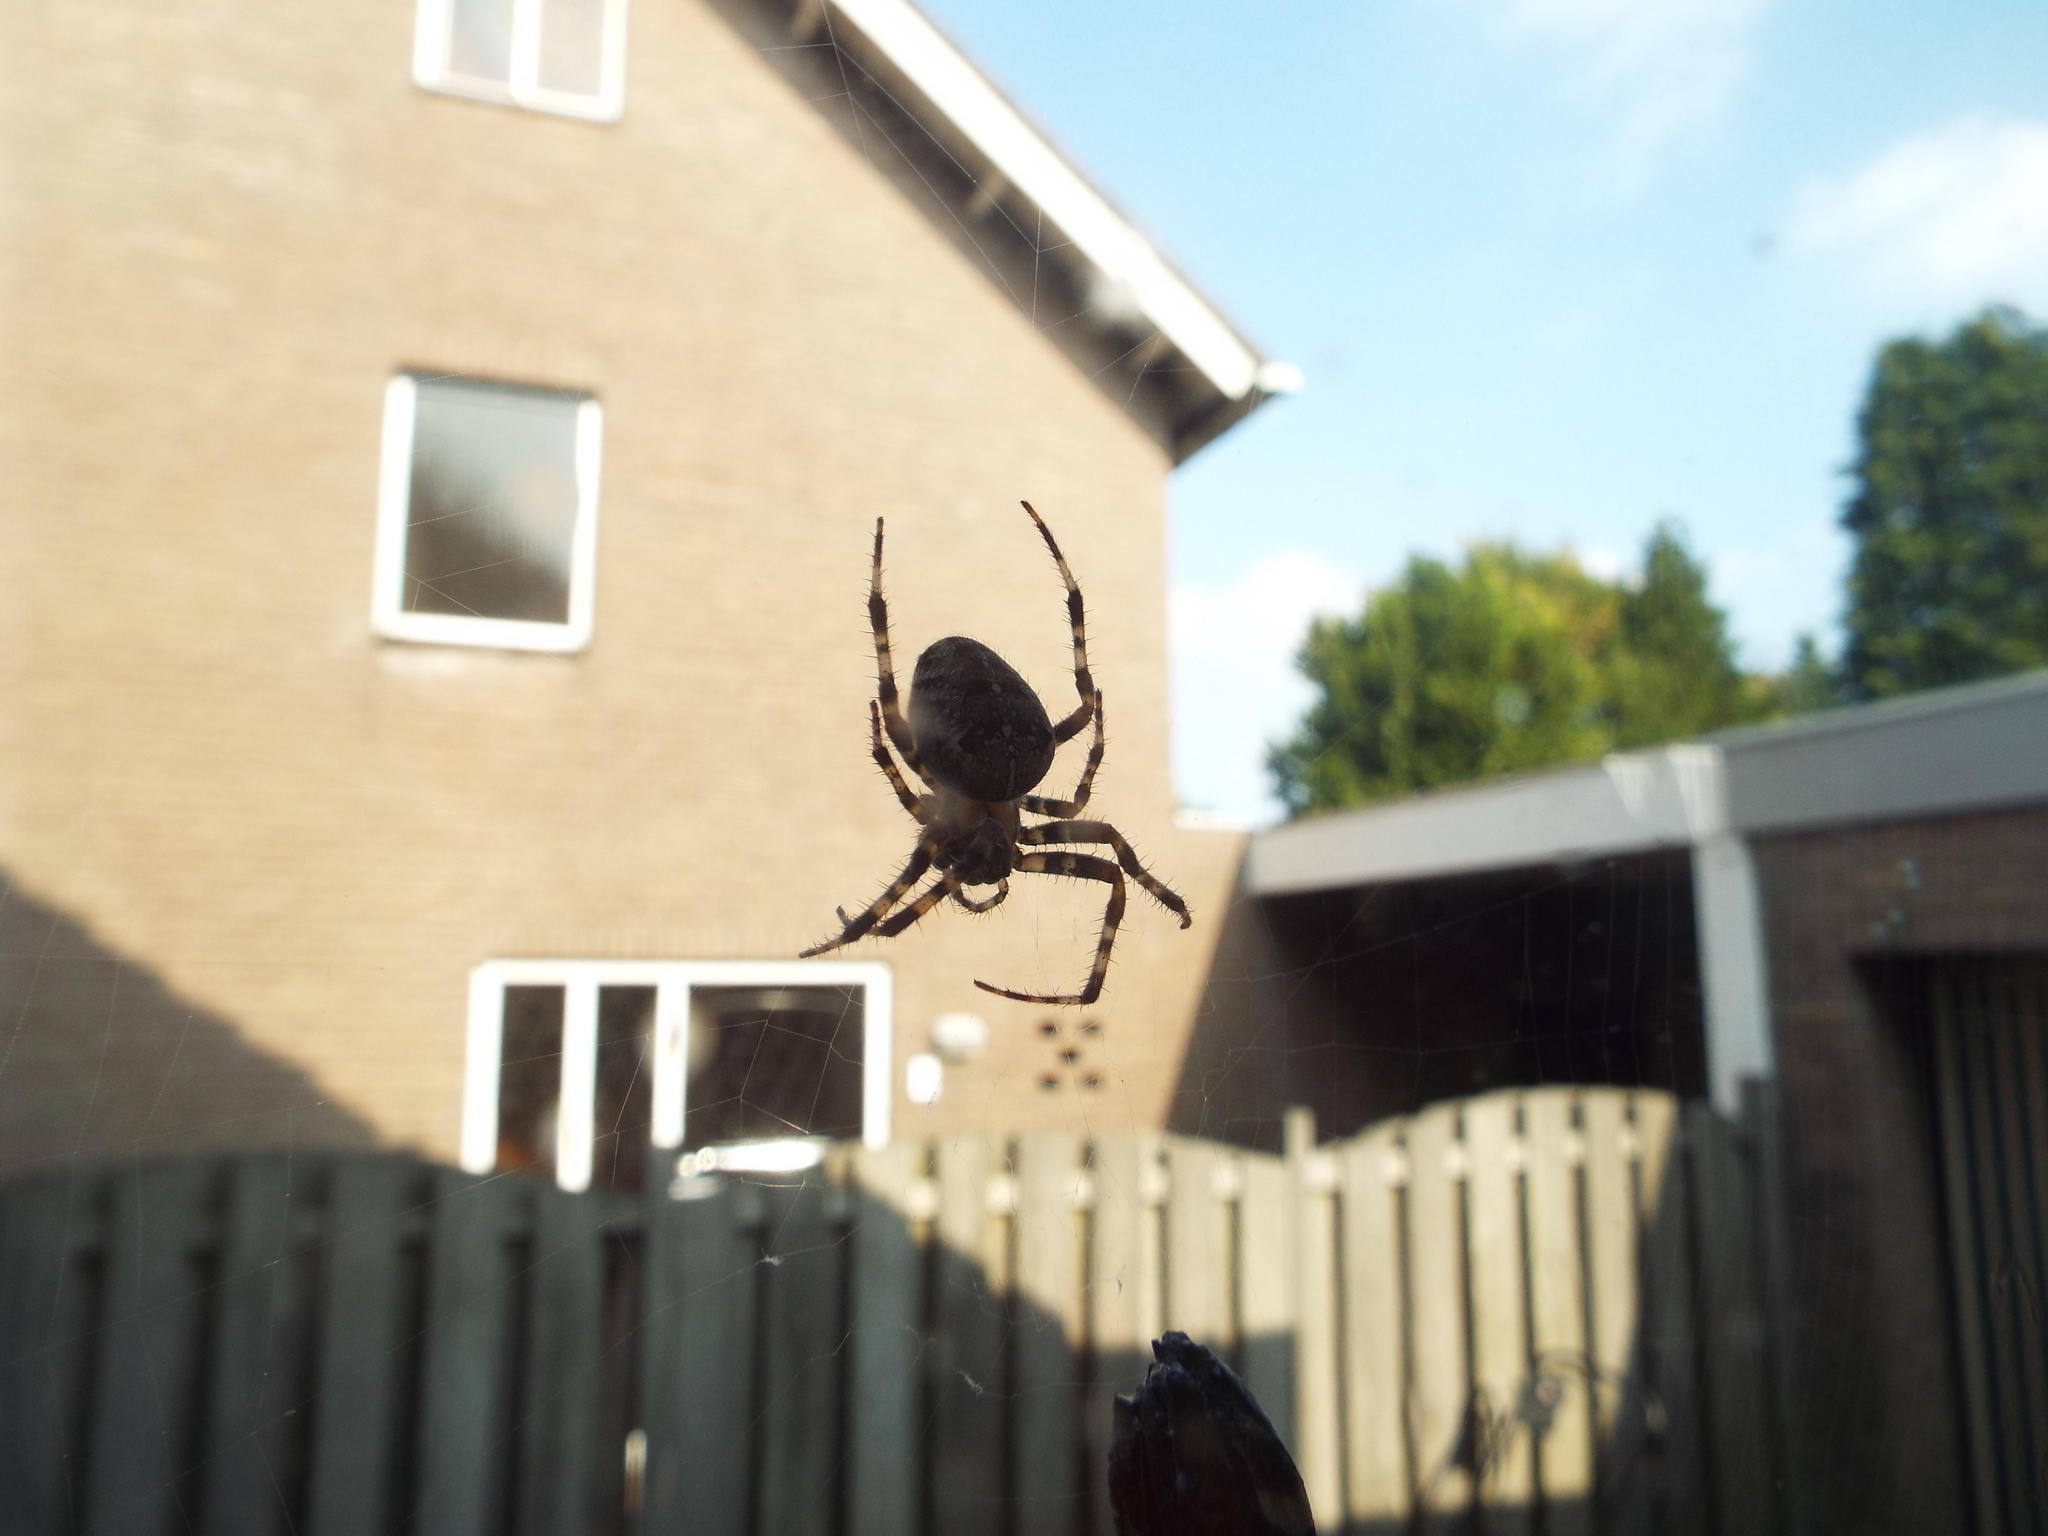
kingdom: Animalia
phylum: Arthropoda
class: Arachnida
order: Araneae
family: Araneidae
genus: Araneus
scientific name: Araneus diadematus
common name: Cross orbweaver
